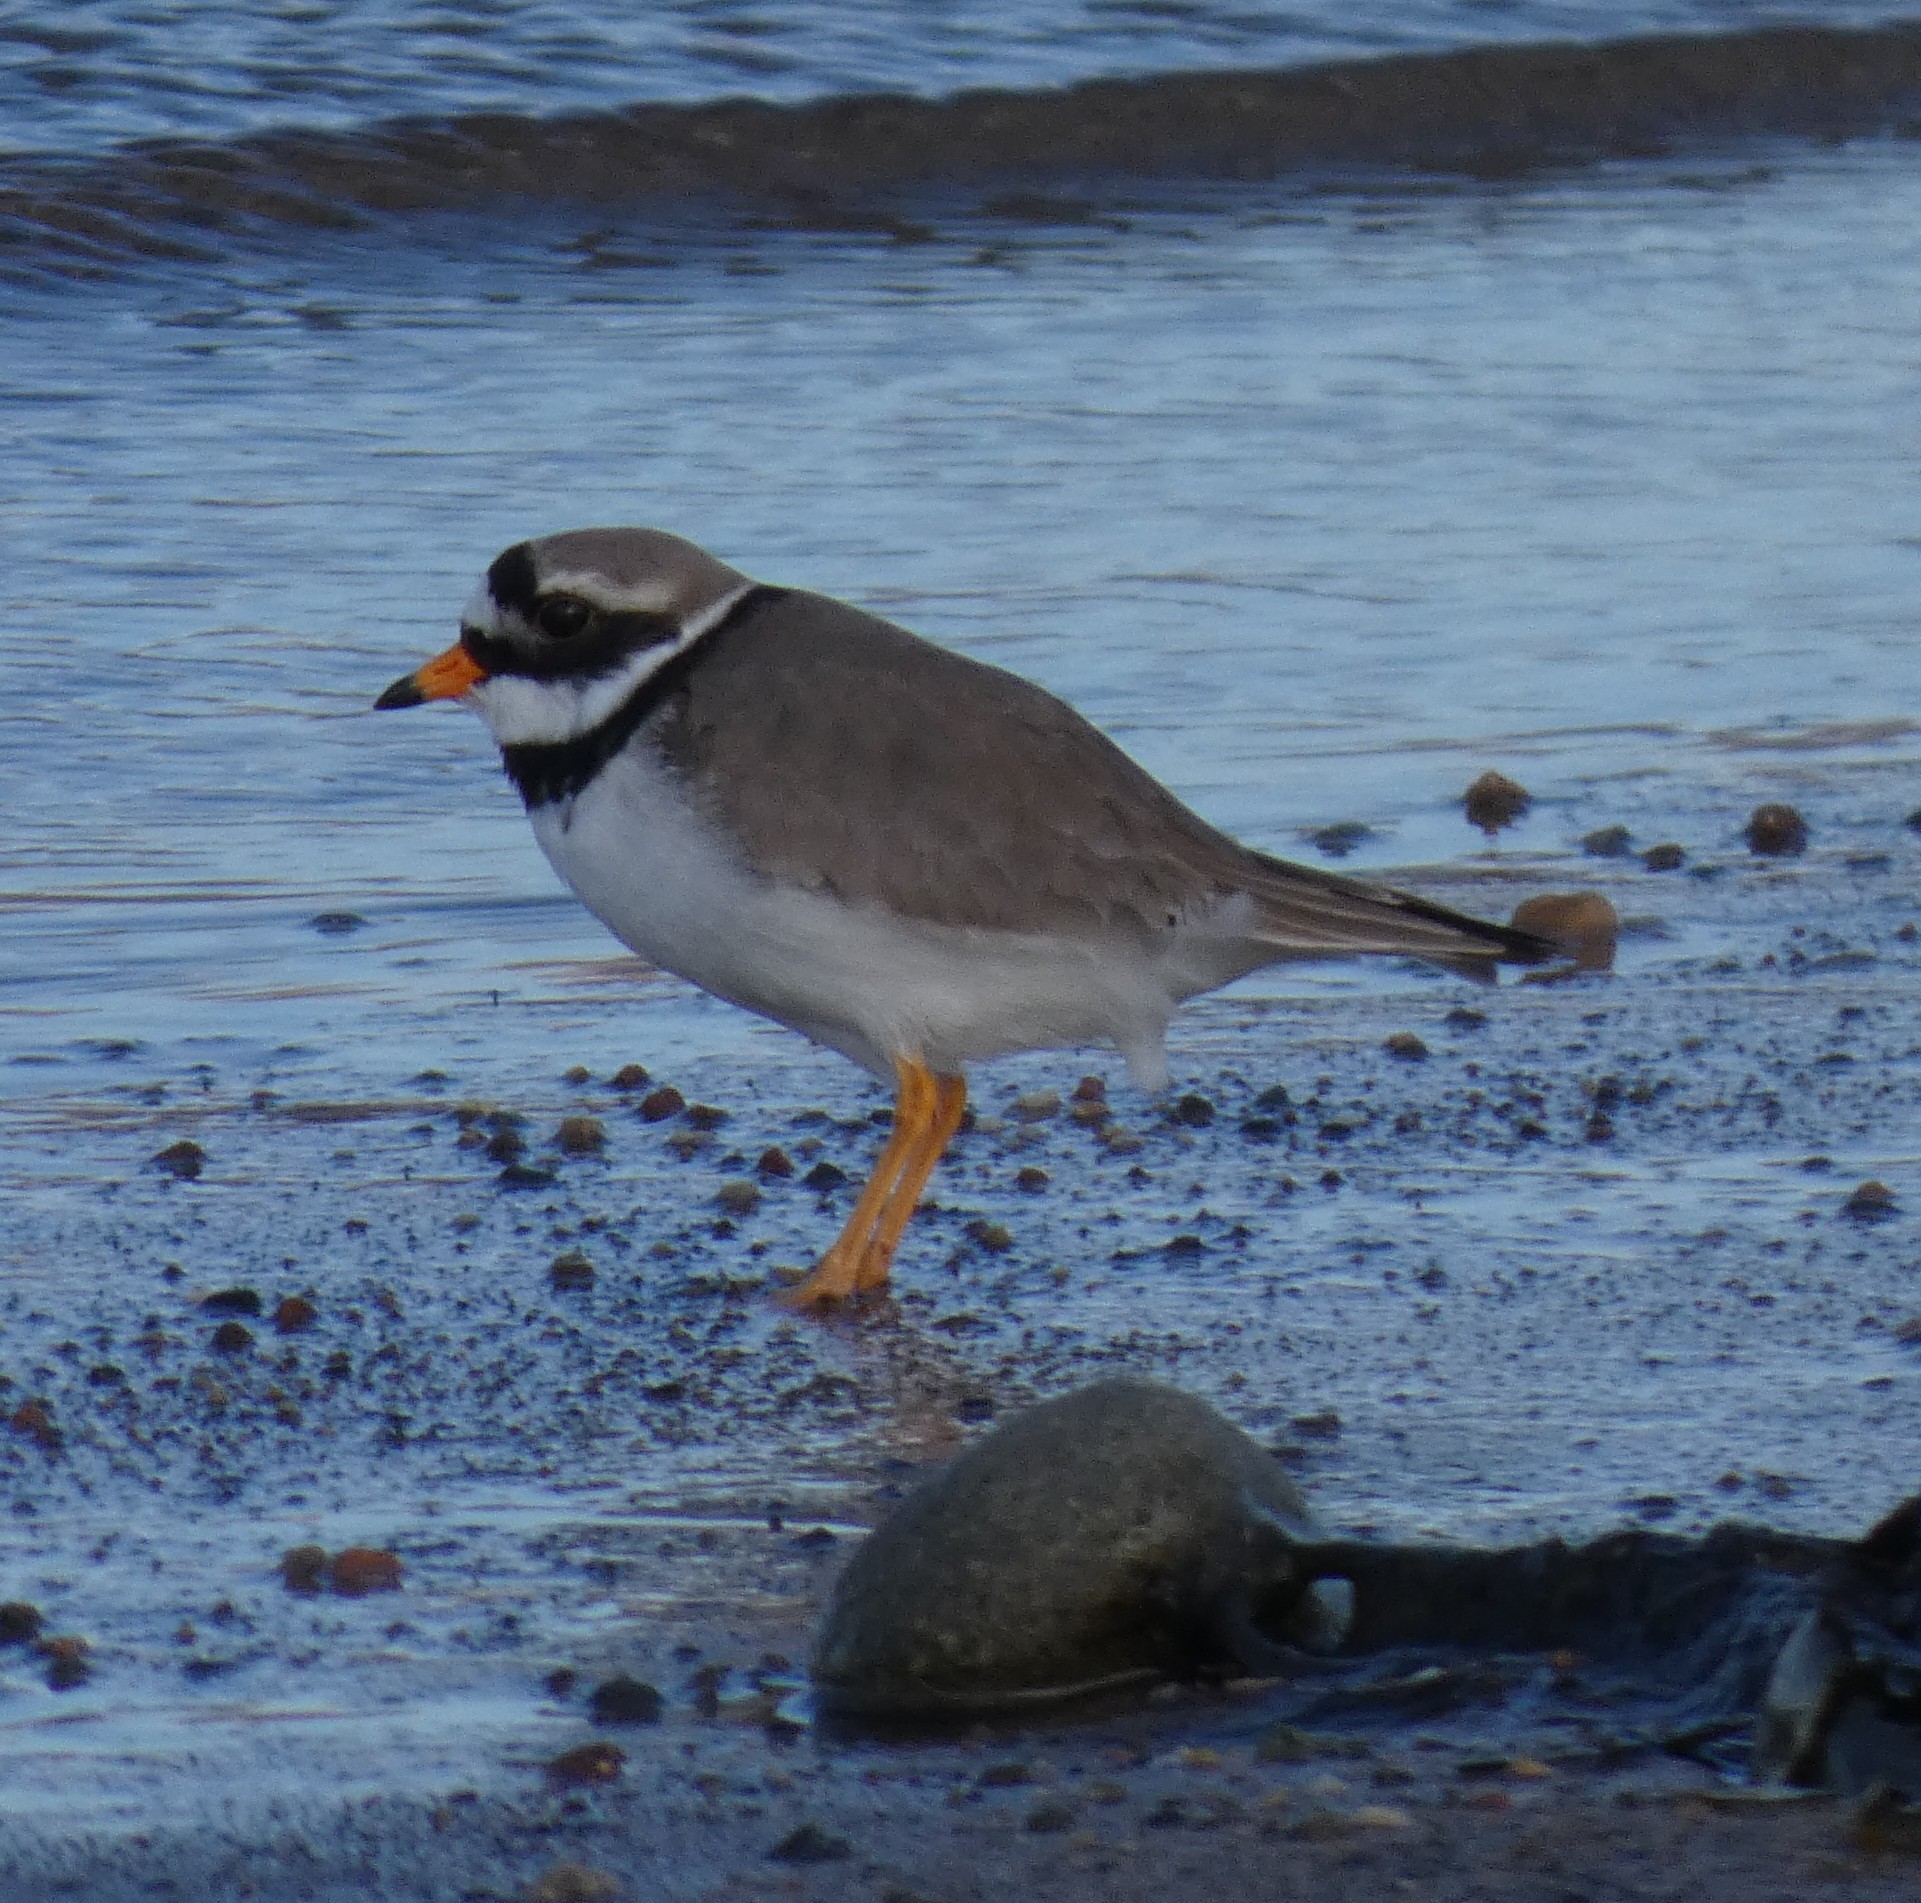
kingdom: Animalia
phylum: Chordata
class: Aves
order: Charadriiformes
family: Charadriidae
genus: Charadrius
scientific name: Charadrius hiaticula
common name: Common ringed plover
